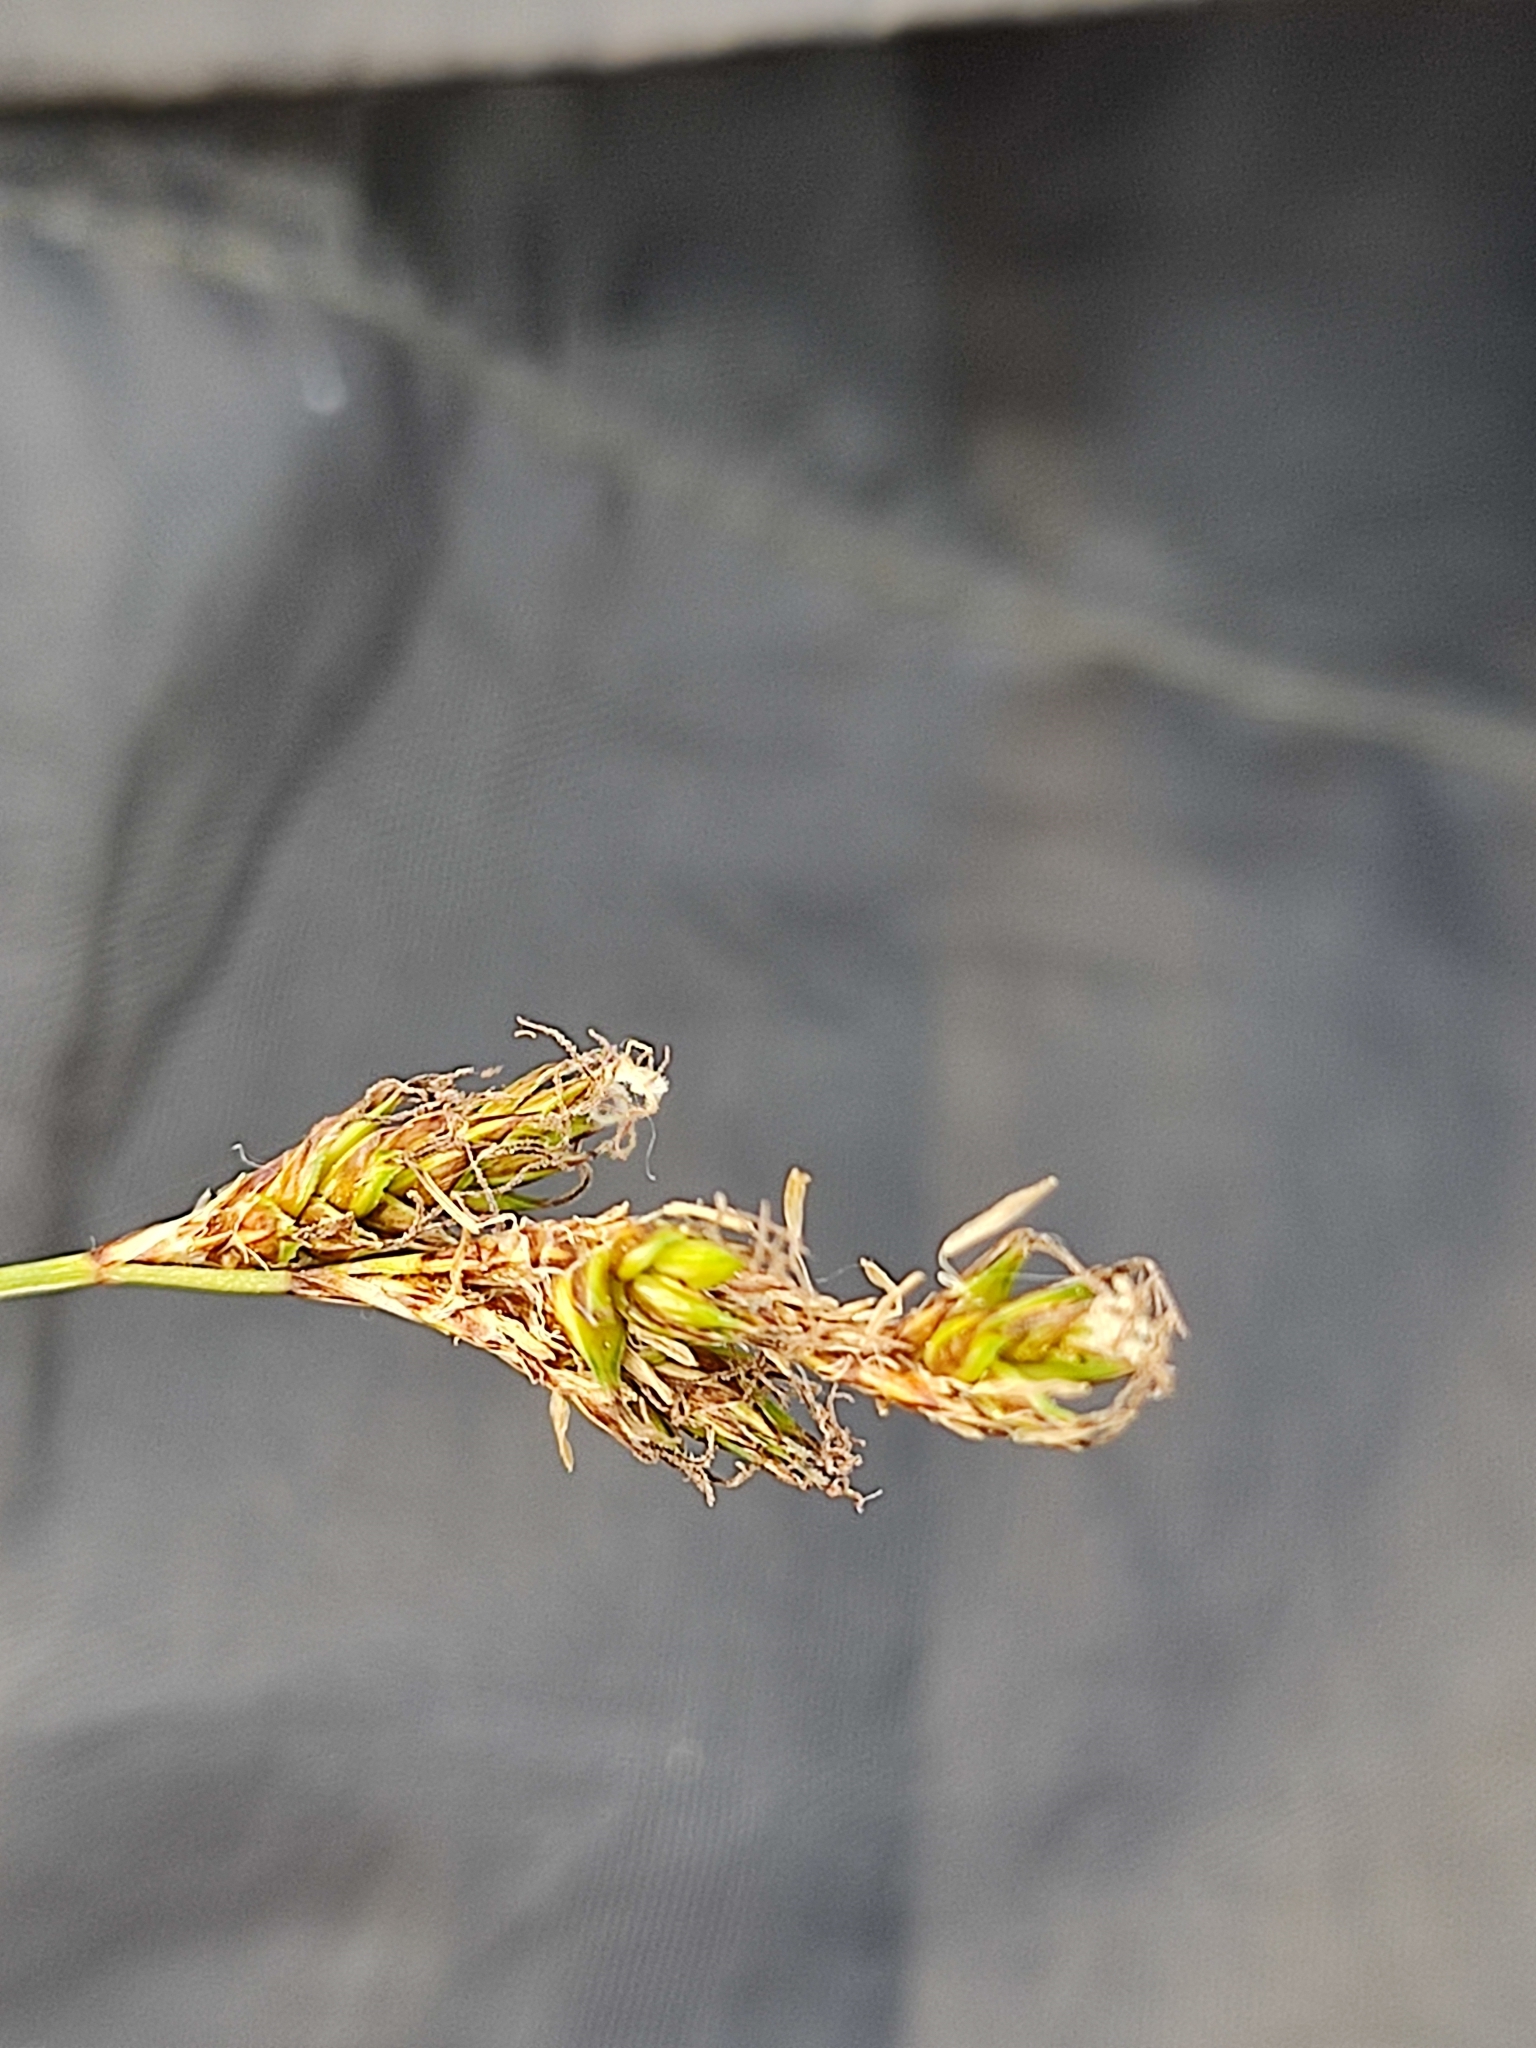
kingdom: Plantae
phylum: Tracheophyta
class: Liliopsida
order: Poales
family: Cyperaceae
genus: Carex
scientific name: Carex praecox
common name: Early sedge
